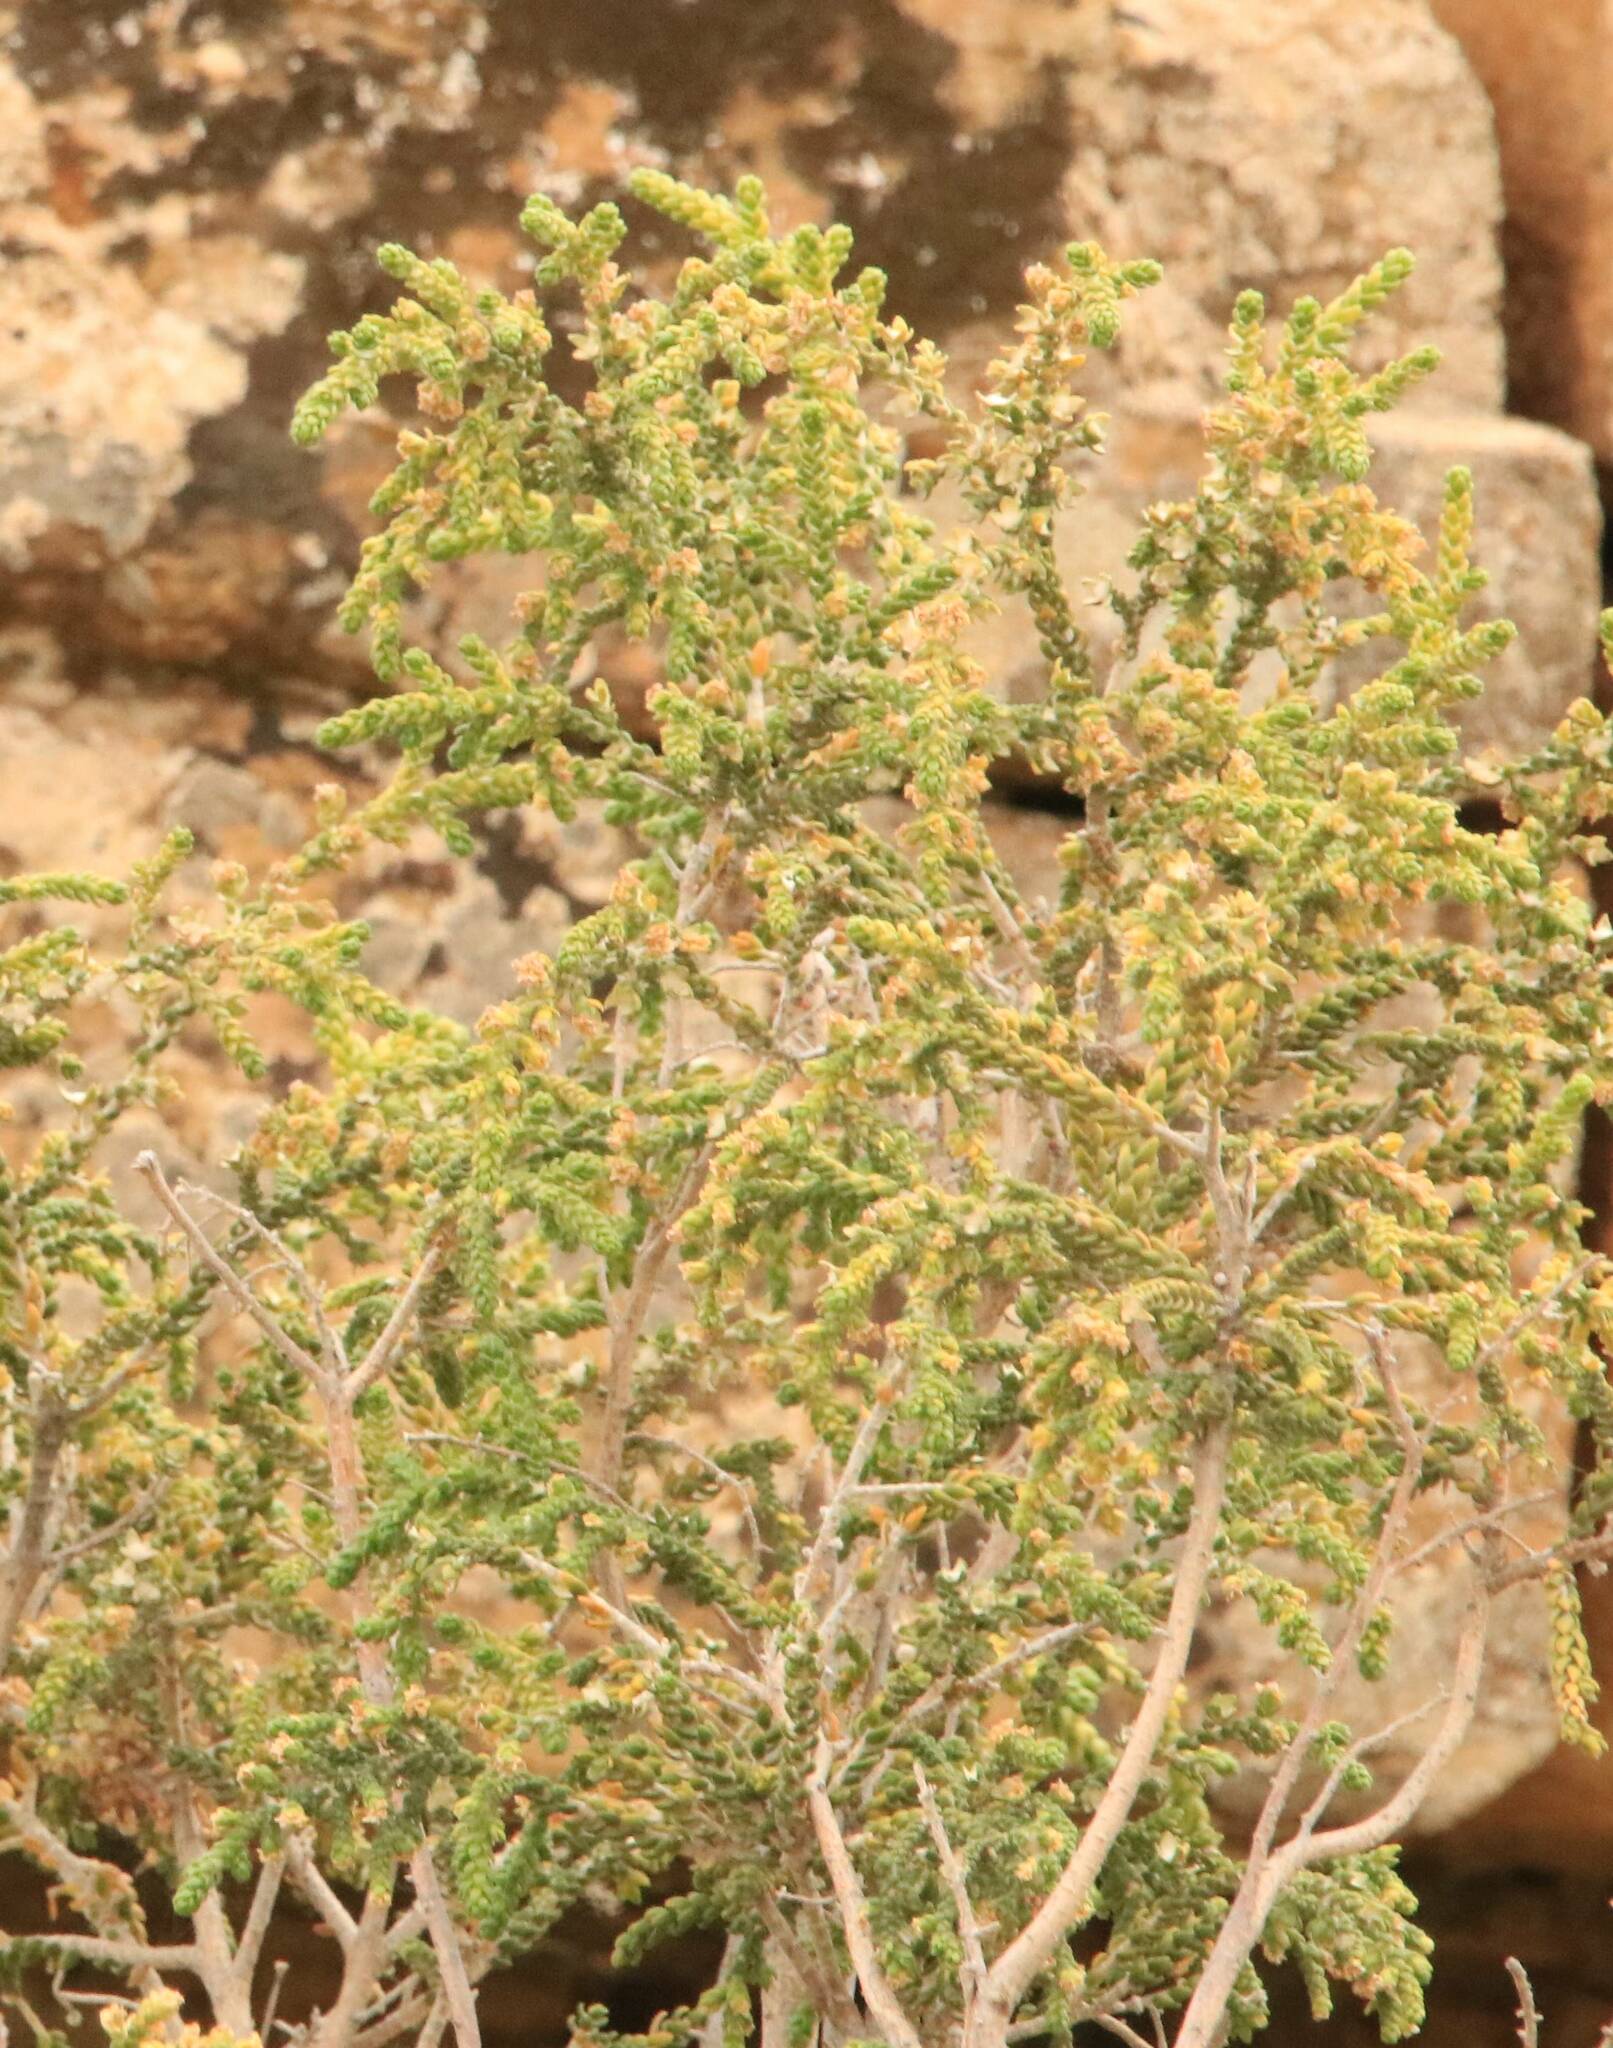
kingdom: Plantae
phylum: Tracheophyta
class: Magnoliopsida
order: Malvales
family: Thymelaeaceae
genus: Thymelaea
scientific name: Thymelaea hirsuta
